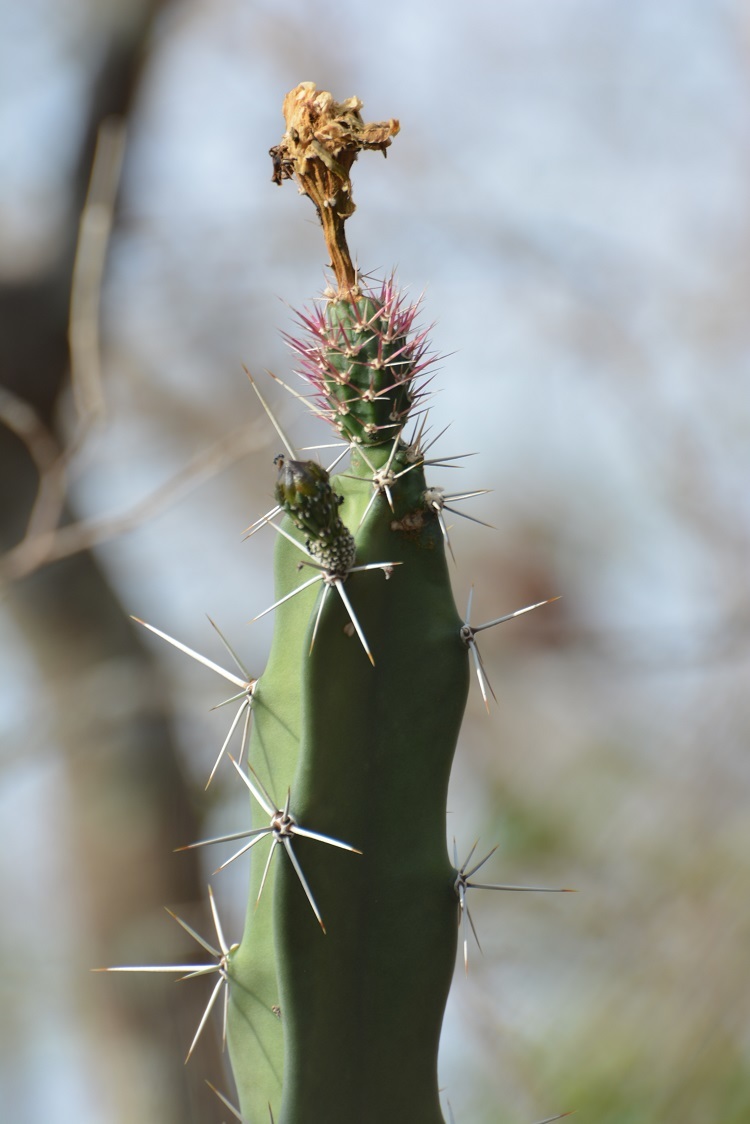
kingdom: Plantae
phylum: Tracheophyta
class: Magnoliopsida
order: Caryophyllales
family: Cactaceae
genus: Acanthocereus
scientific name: Acanthocereus chiapensis
